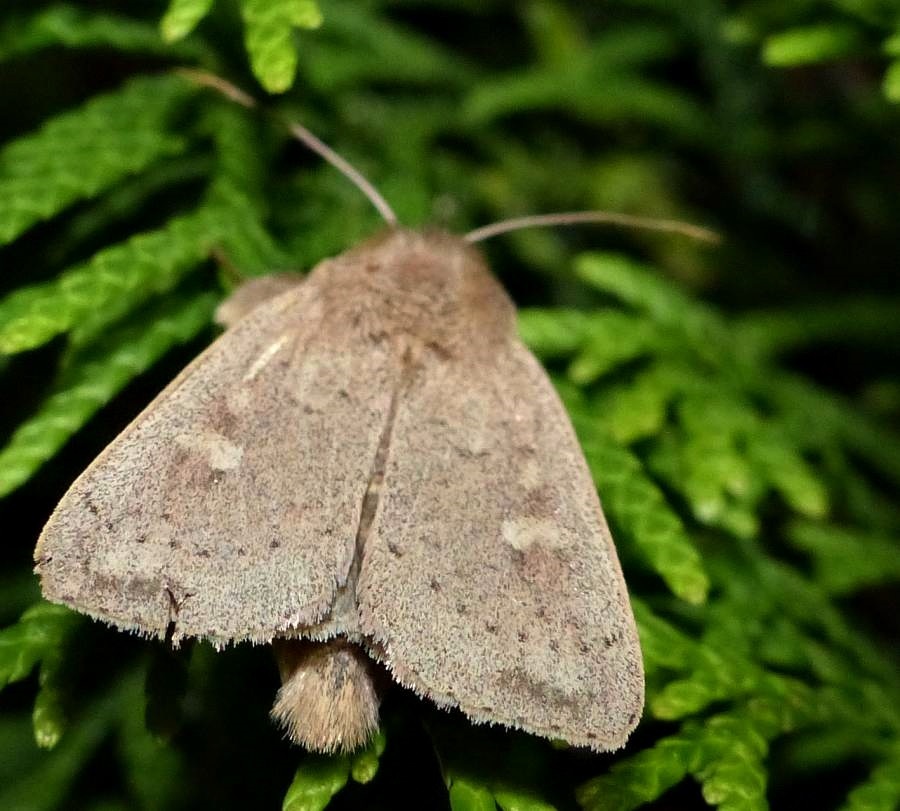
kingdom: Animalia
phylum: Arthropoda
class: Insecta
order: Lepidoptera
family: Noctuidae
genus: Leucania
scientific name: Leucania pseudargyria
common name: False wainscot
